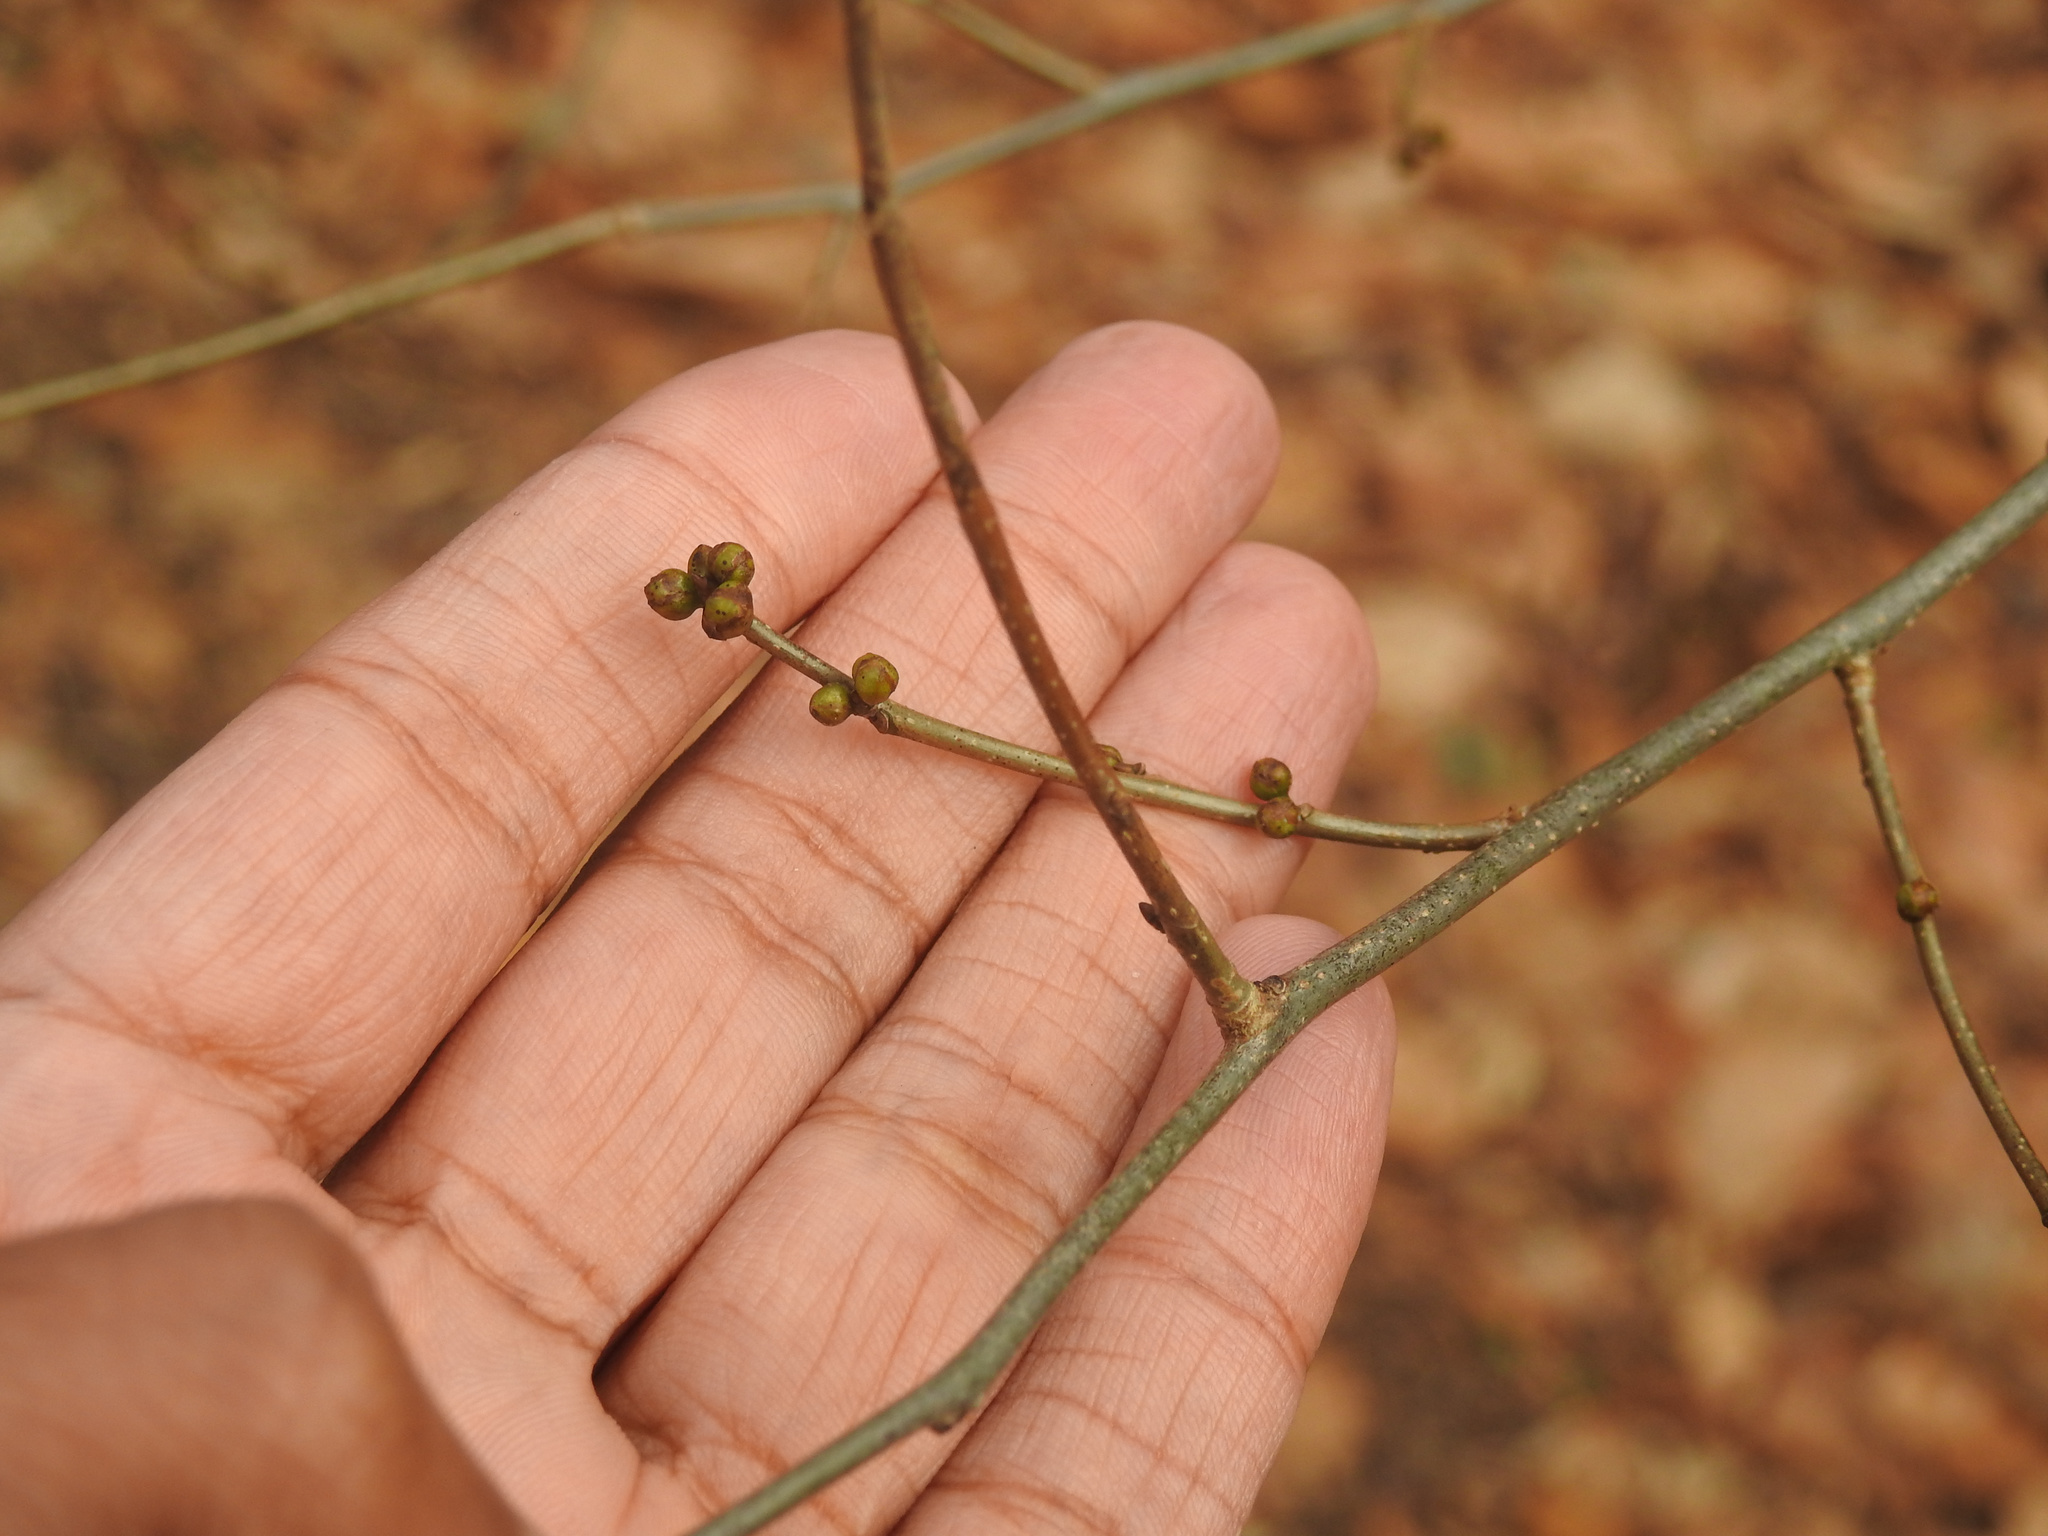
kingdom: Plantae
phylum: Tracheophyta
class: Magnoliopsida
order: Laurales
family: Lauraceae
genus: Lindera
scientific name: Lindera benzoin
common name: Spicebush
